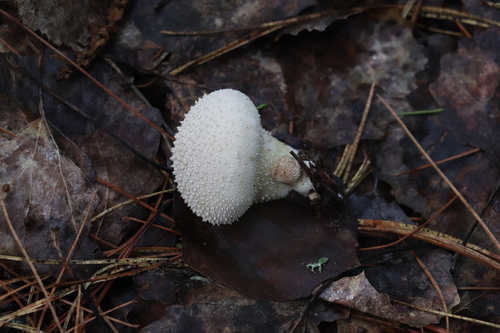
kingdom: Fungi
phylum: Basidiomycota
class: Agaricomycetes
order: Agaricales
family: Lycoperdaceae
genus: Lycoperdon
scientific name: Lycoperdon perlatum
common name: Common puffball
